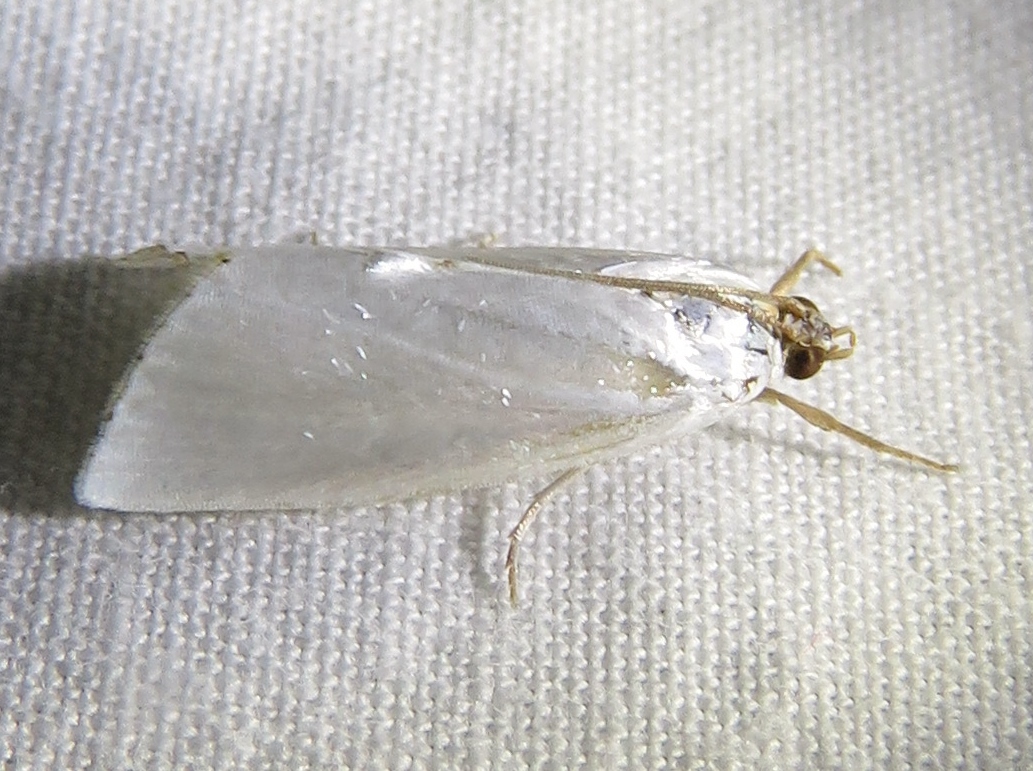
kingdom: Animalia
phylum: Arthropoda
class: Insecta
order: Lepidoptera
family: Crambidae
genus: Argyria
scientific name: Argyria nivalis
